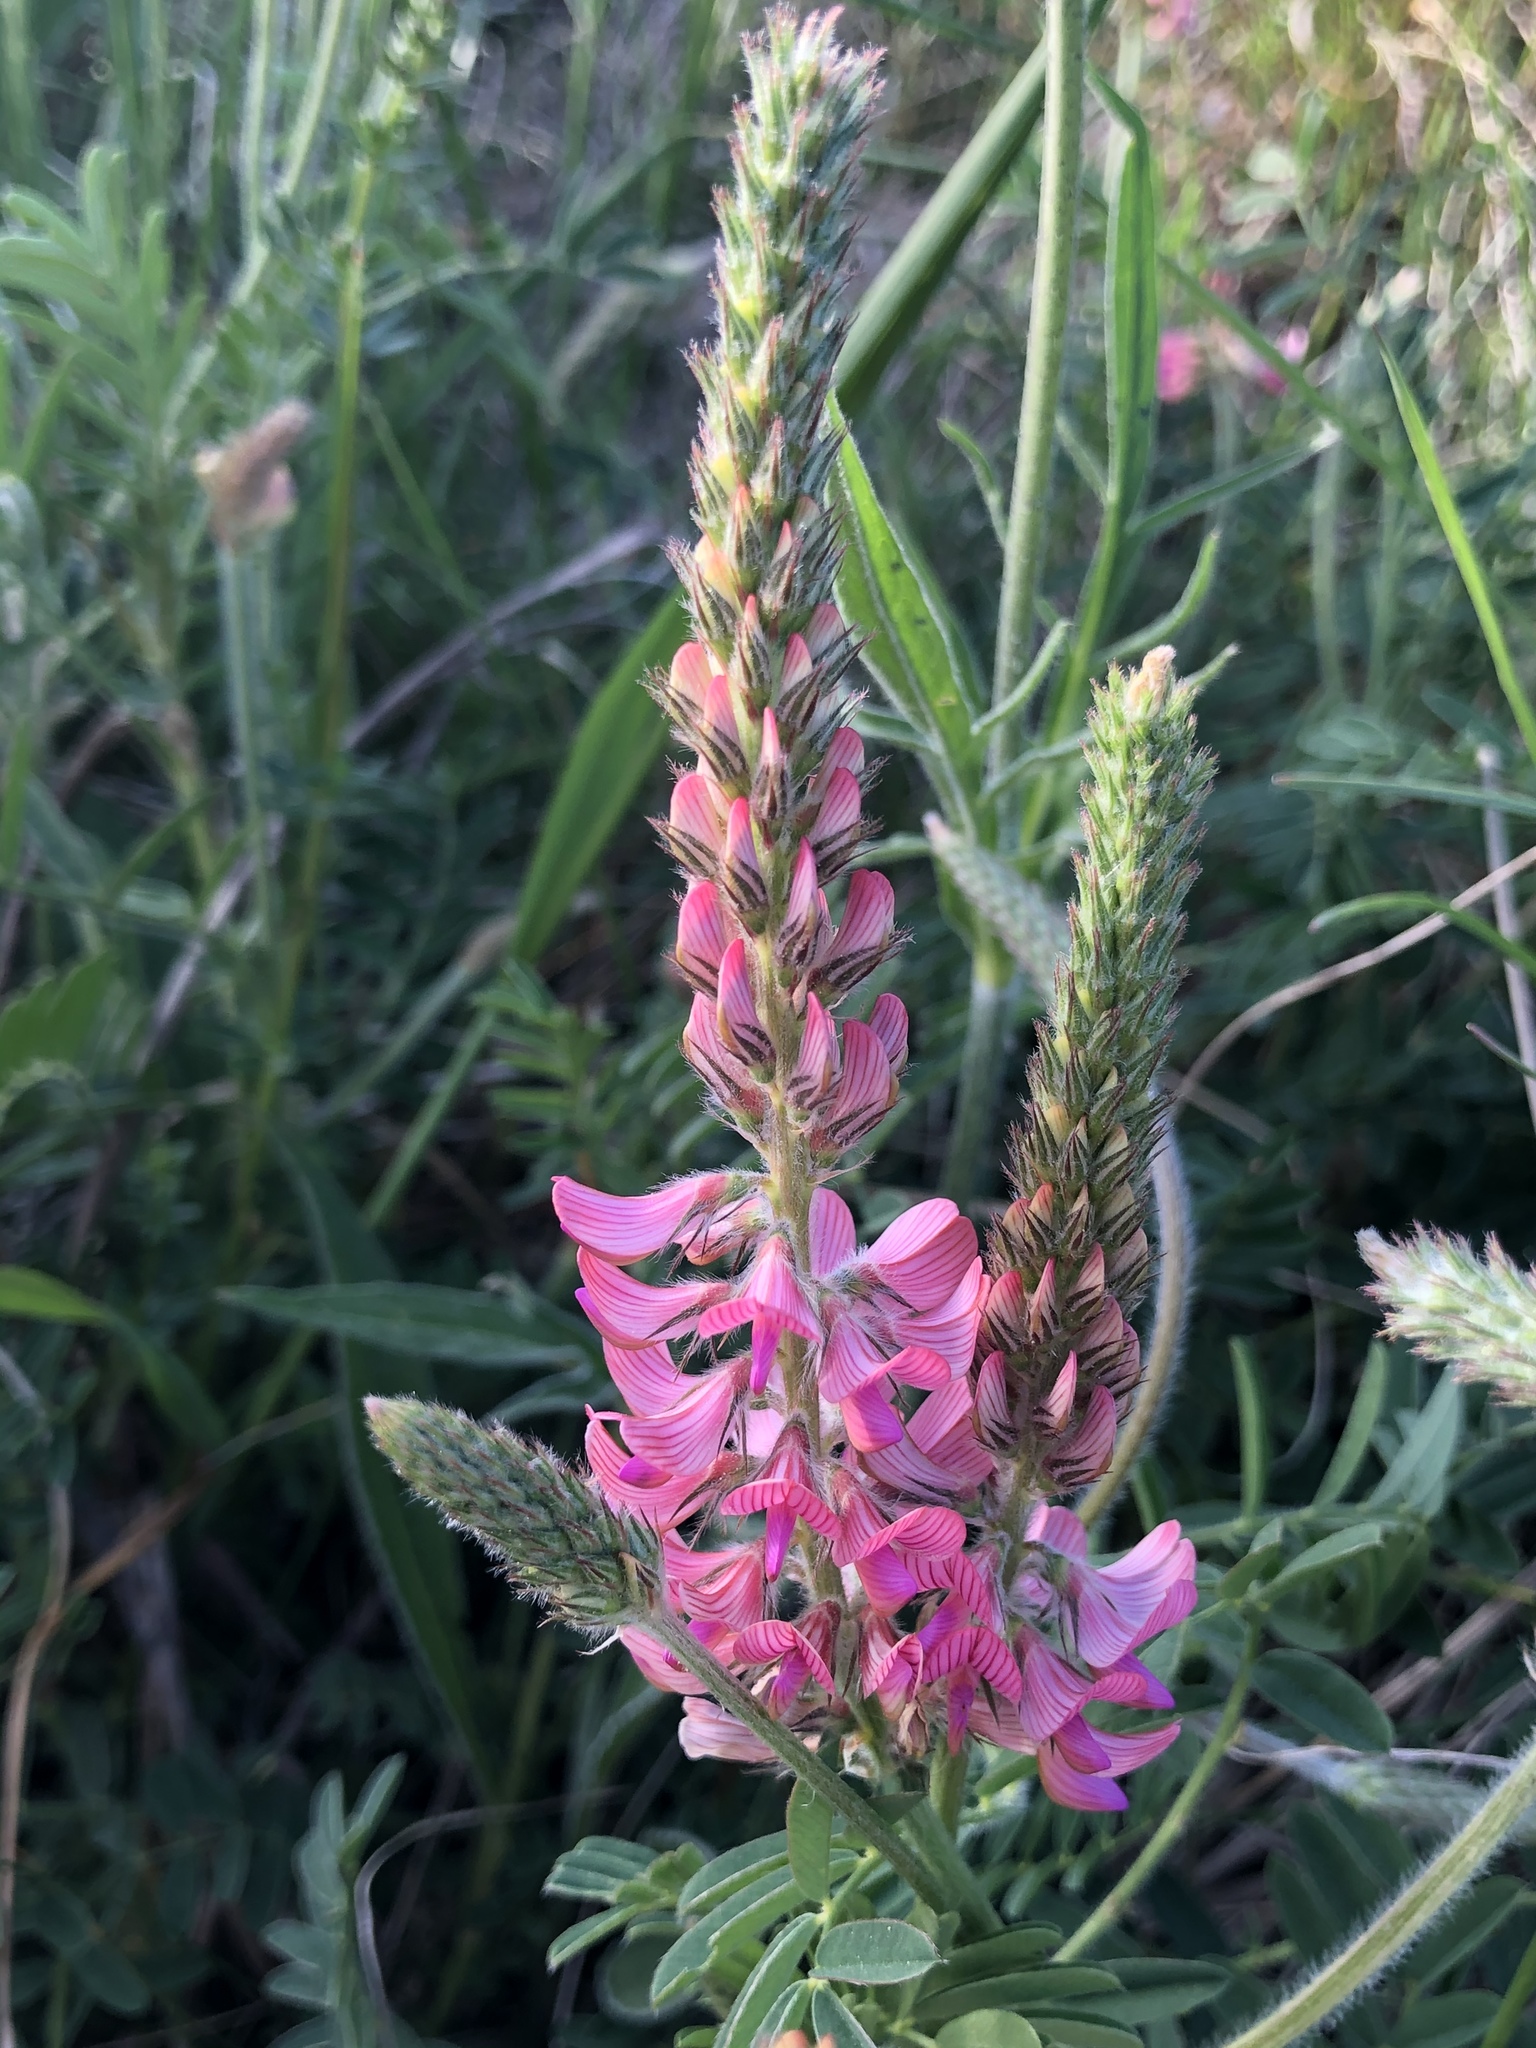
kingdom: Plantae
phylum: Tracheophyta
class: Magnoliopsida
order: Fabales
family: Fabaceae
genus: Onobrychis
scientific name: Onobrychis viciifolia
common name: Sainfoin
